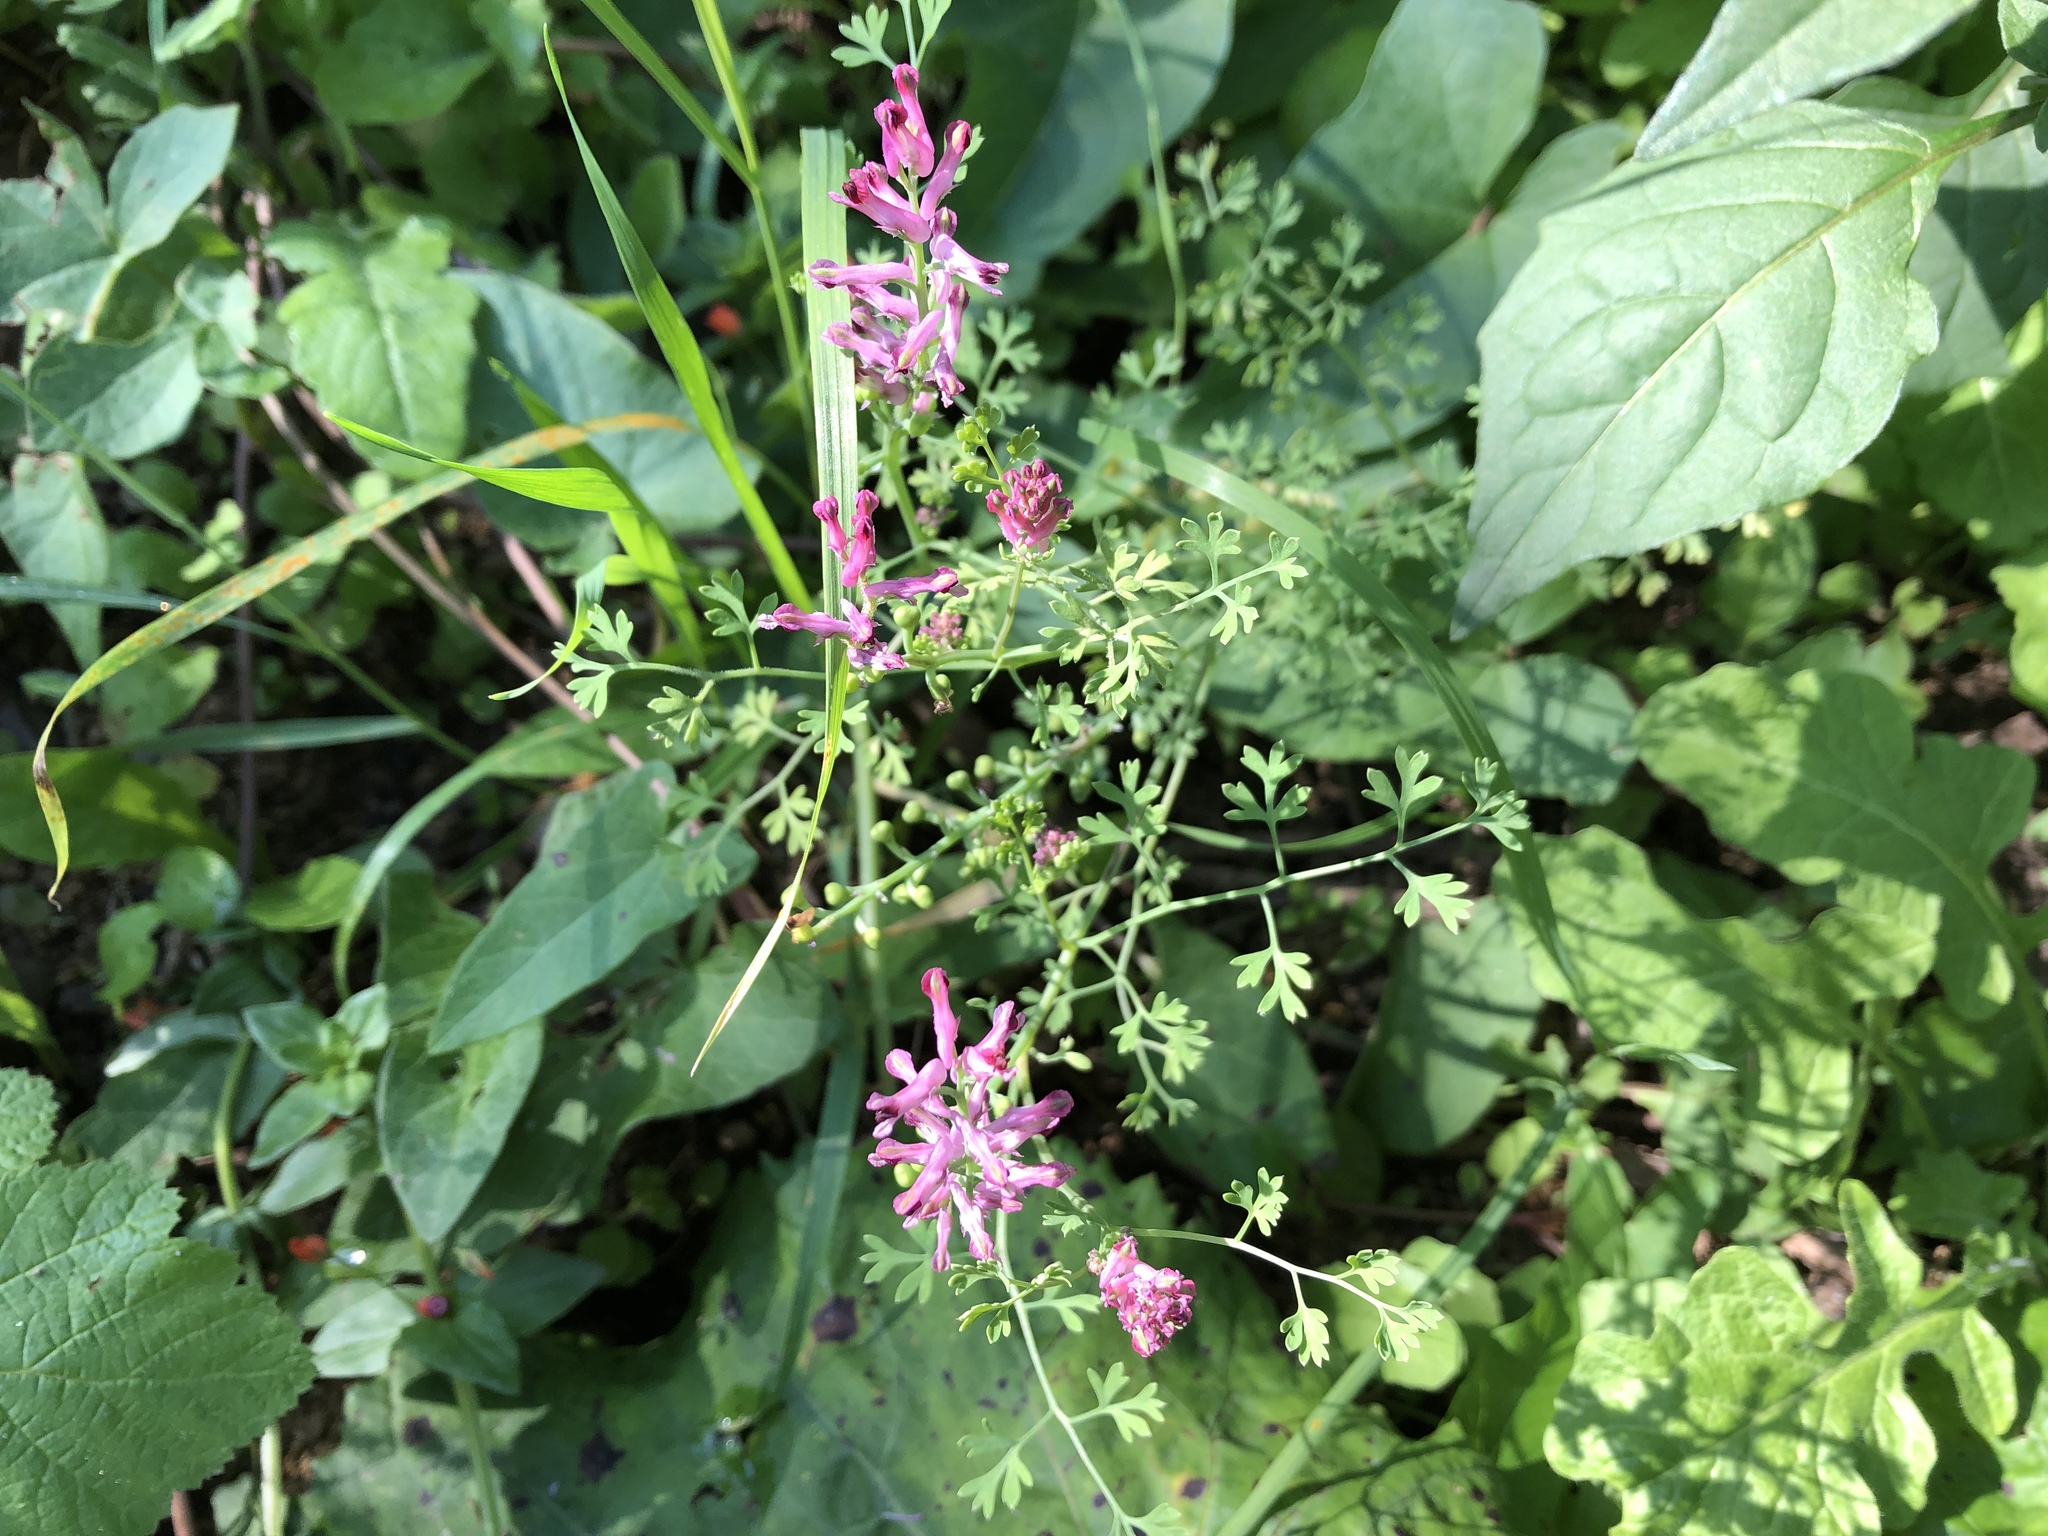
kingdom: Plantae
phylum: Tracheophyta
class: Magnoliopsida
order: Ranunculales
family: Papaveraceae
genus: Fumaria
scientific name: Fumaria officinalis
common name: Common fumitory
